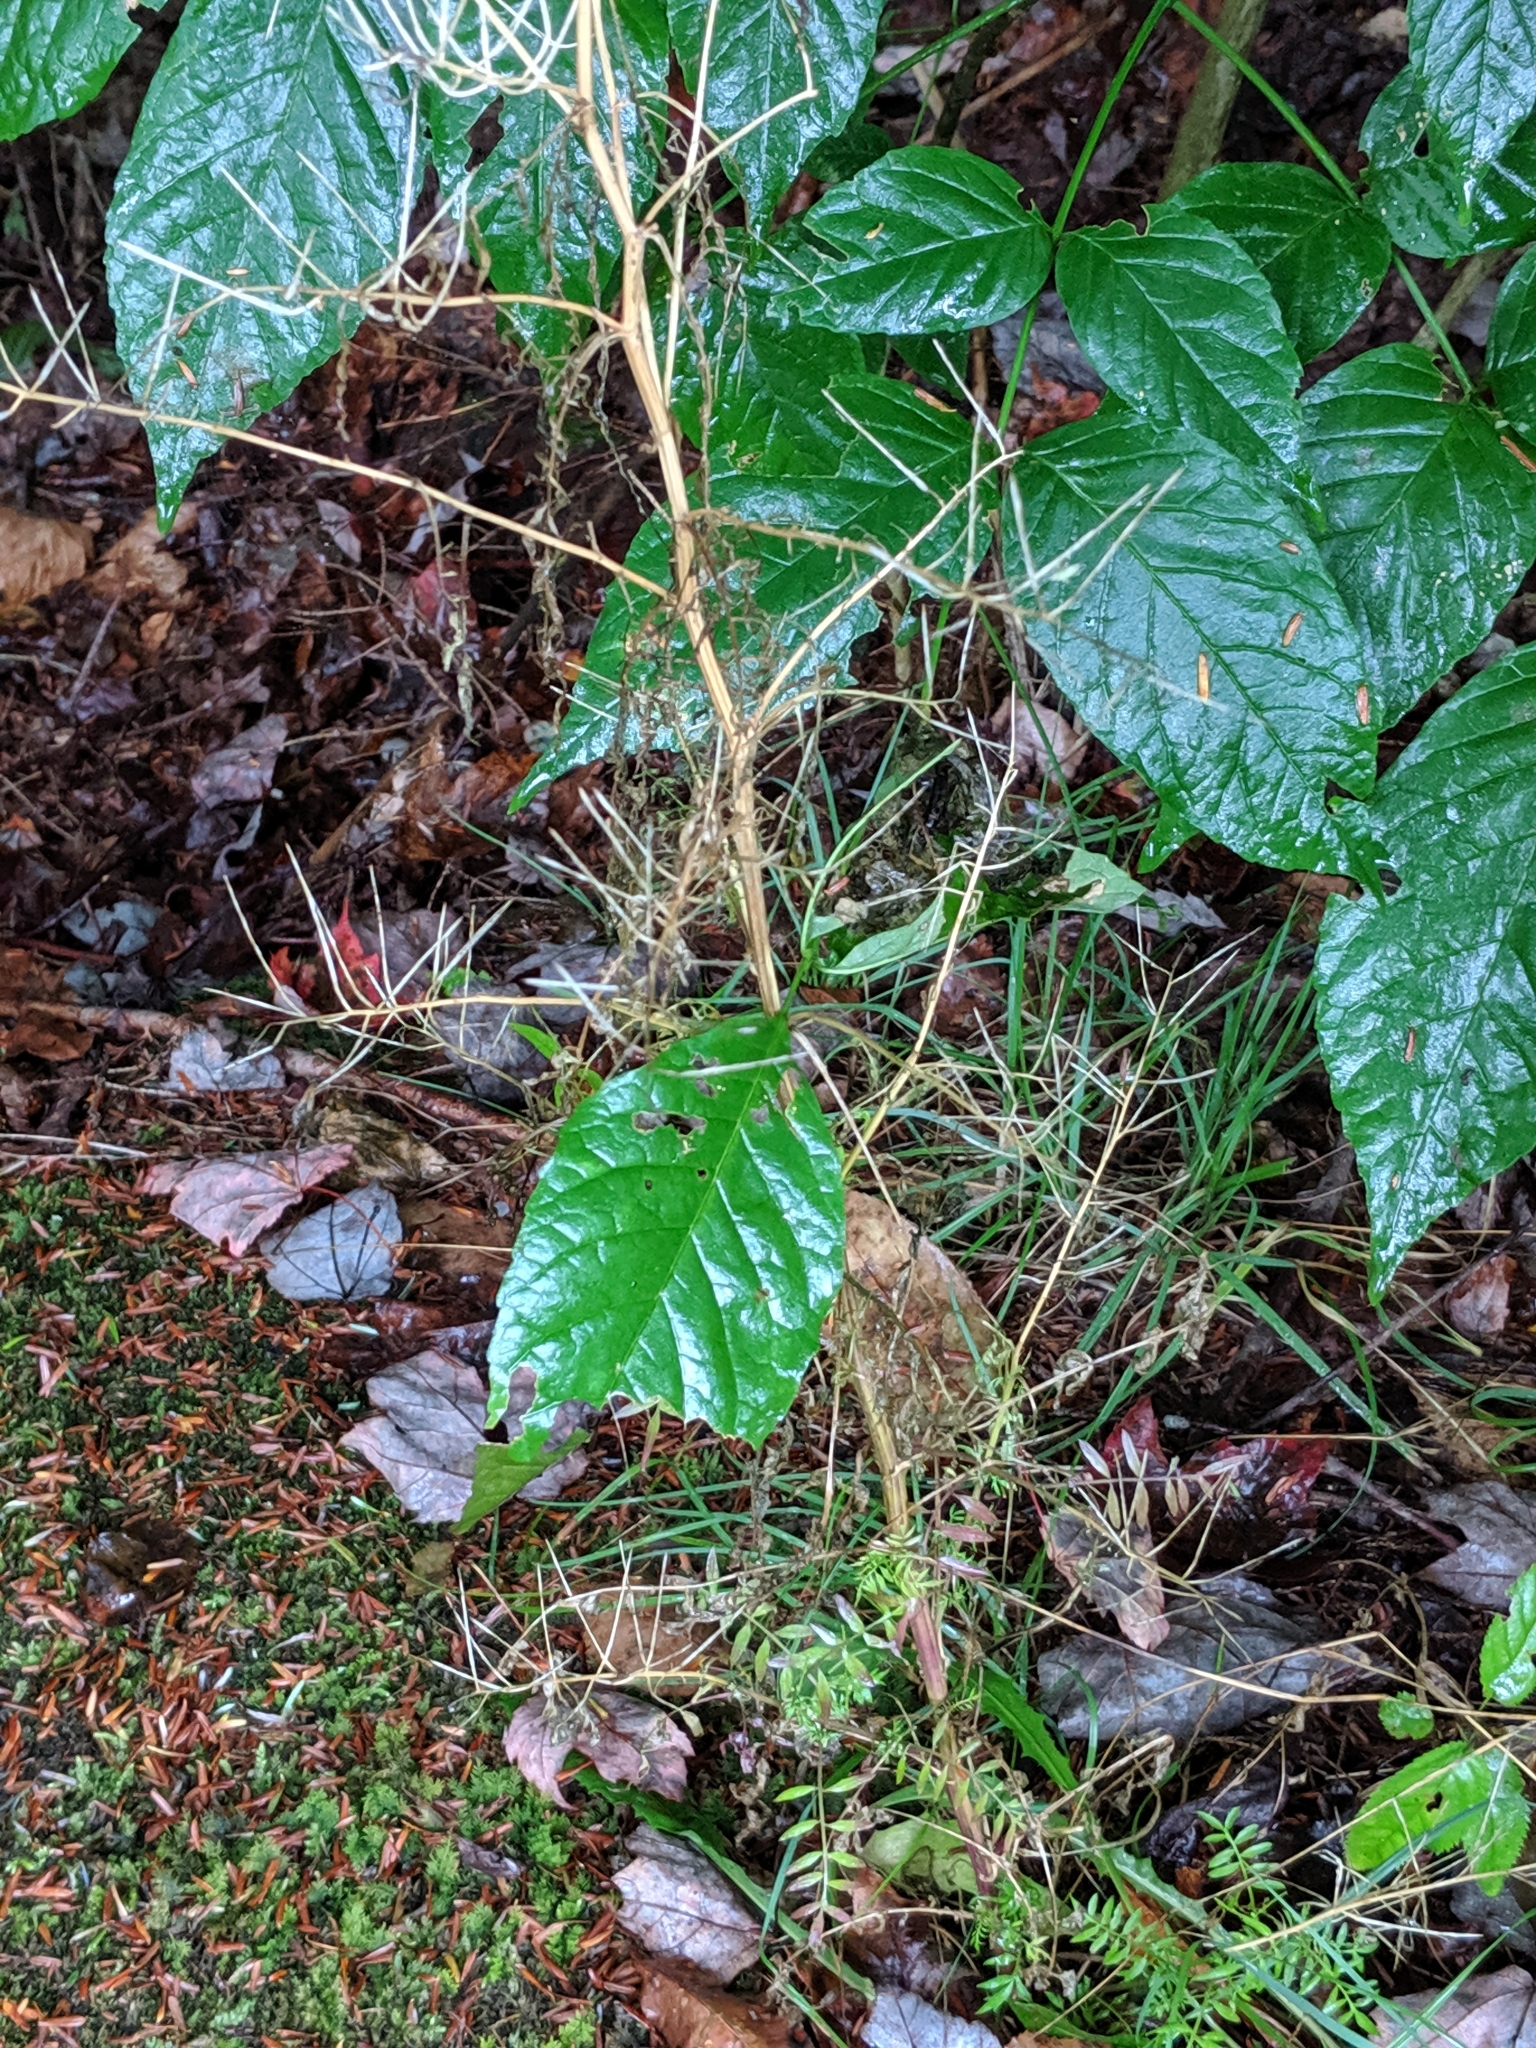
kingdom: Plantae
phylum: Tracheophyta
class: Magnoliopsida
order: Brassicales
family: Brassicaceae
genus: Cardamine
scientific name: Cardamine impatiens
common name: Narrow-leaved bitter-cress
